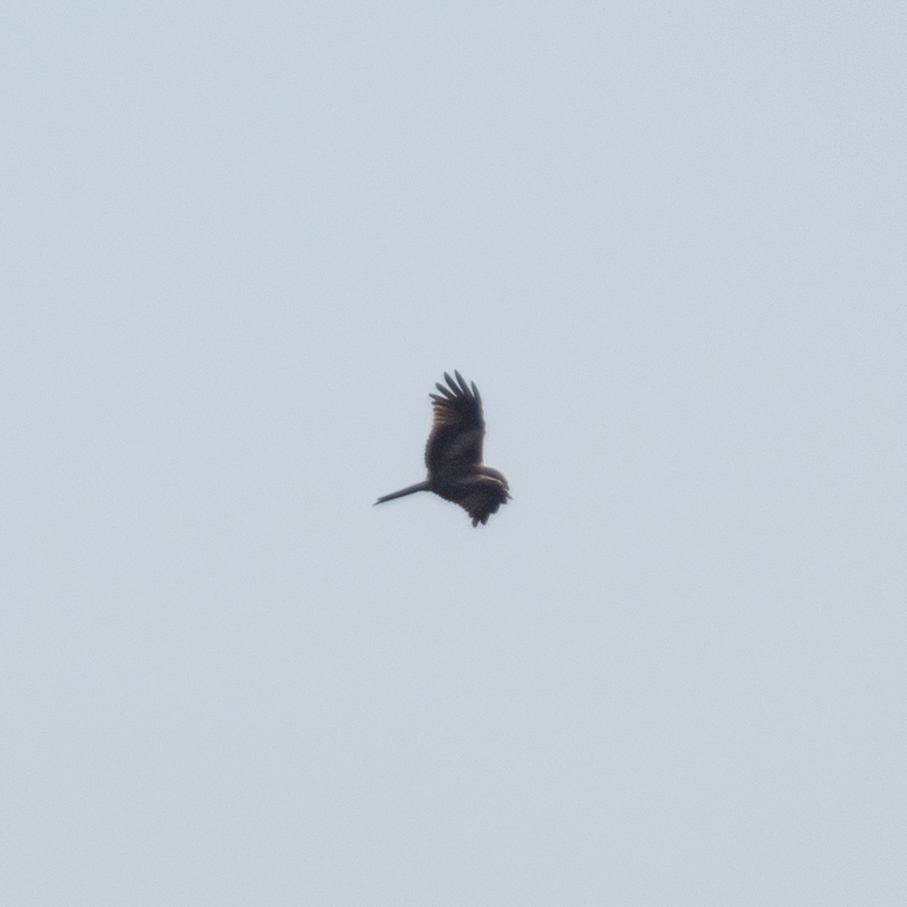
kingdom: Animalia
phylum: Chordata
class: Aves
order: Accipitriformes
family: Accipitridae
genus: Milvus
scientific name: Milvus milvus
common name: Red kite
